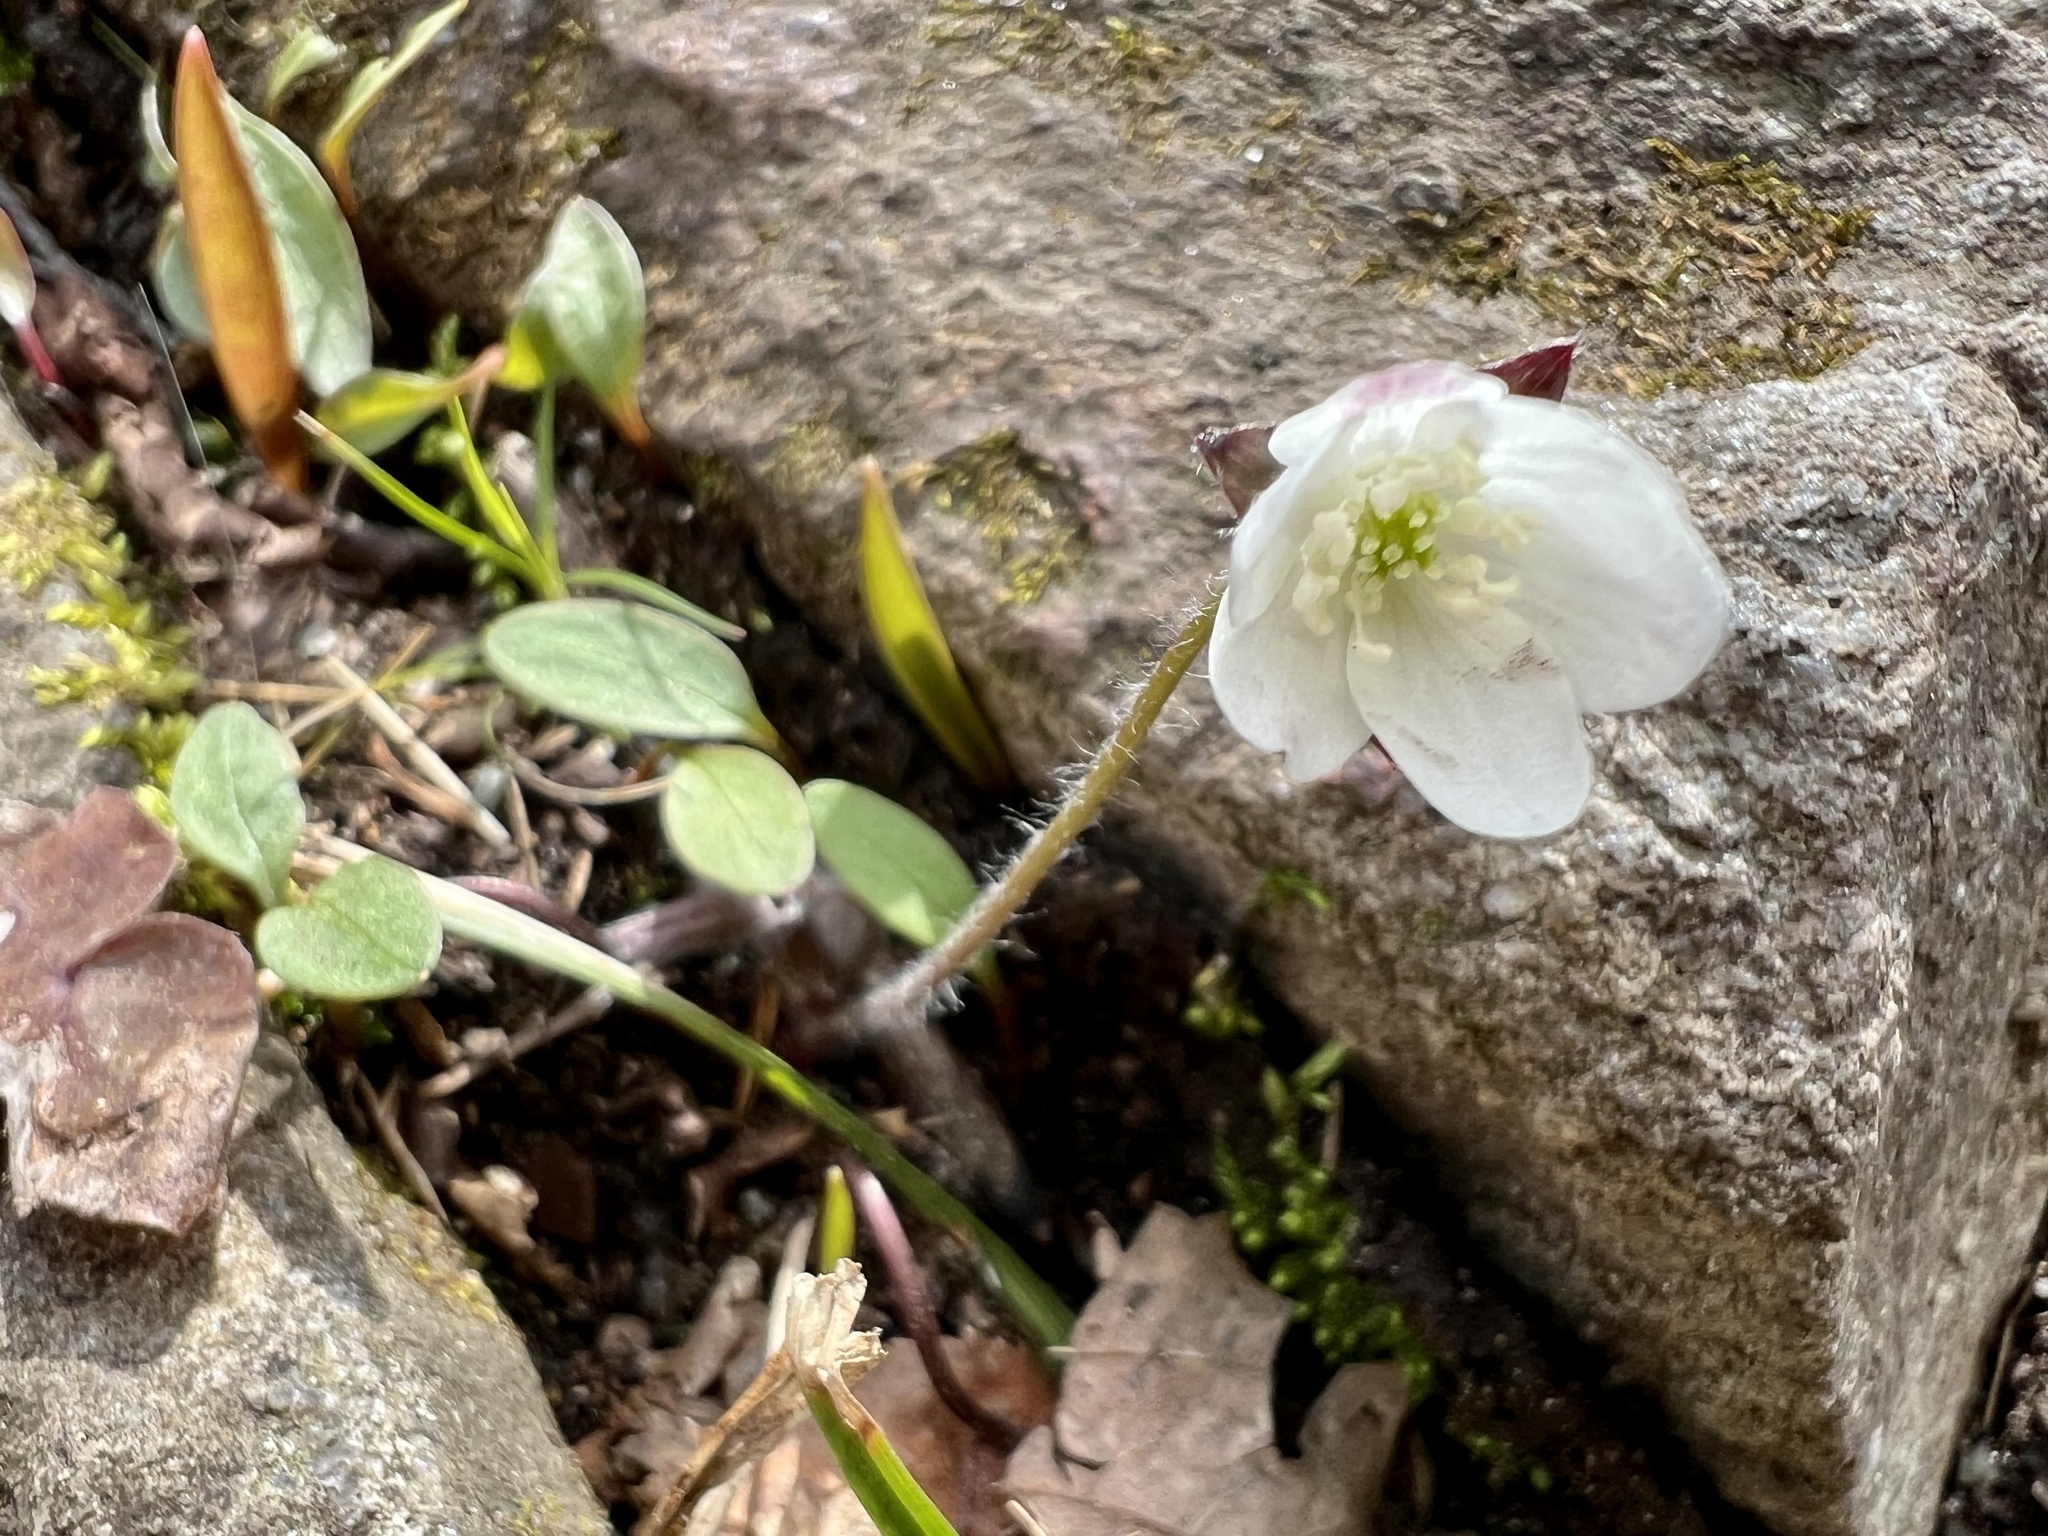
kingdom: Plantae
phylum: Tracheophyta
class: Magnoliopsida
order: Caryophyllales
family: Montiaceae
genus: Claytonia
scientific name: Claytonia caroliniana
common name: Carolina spring beauty
